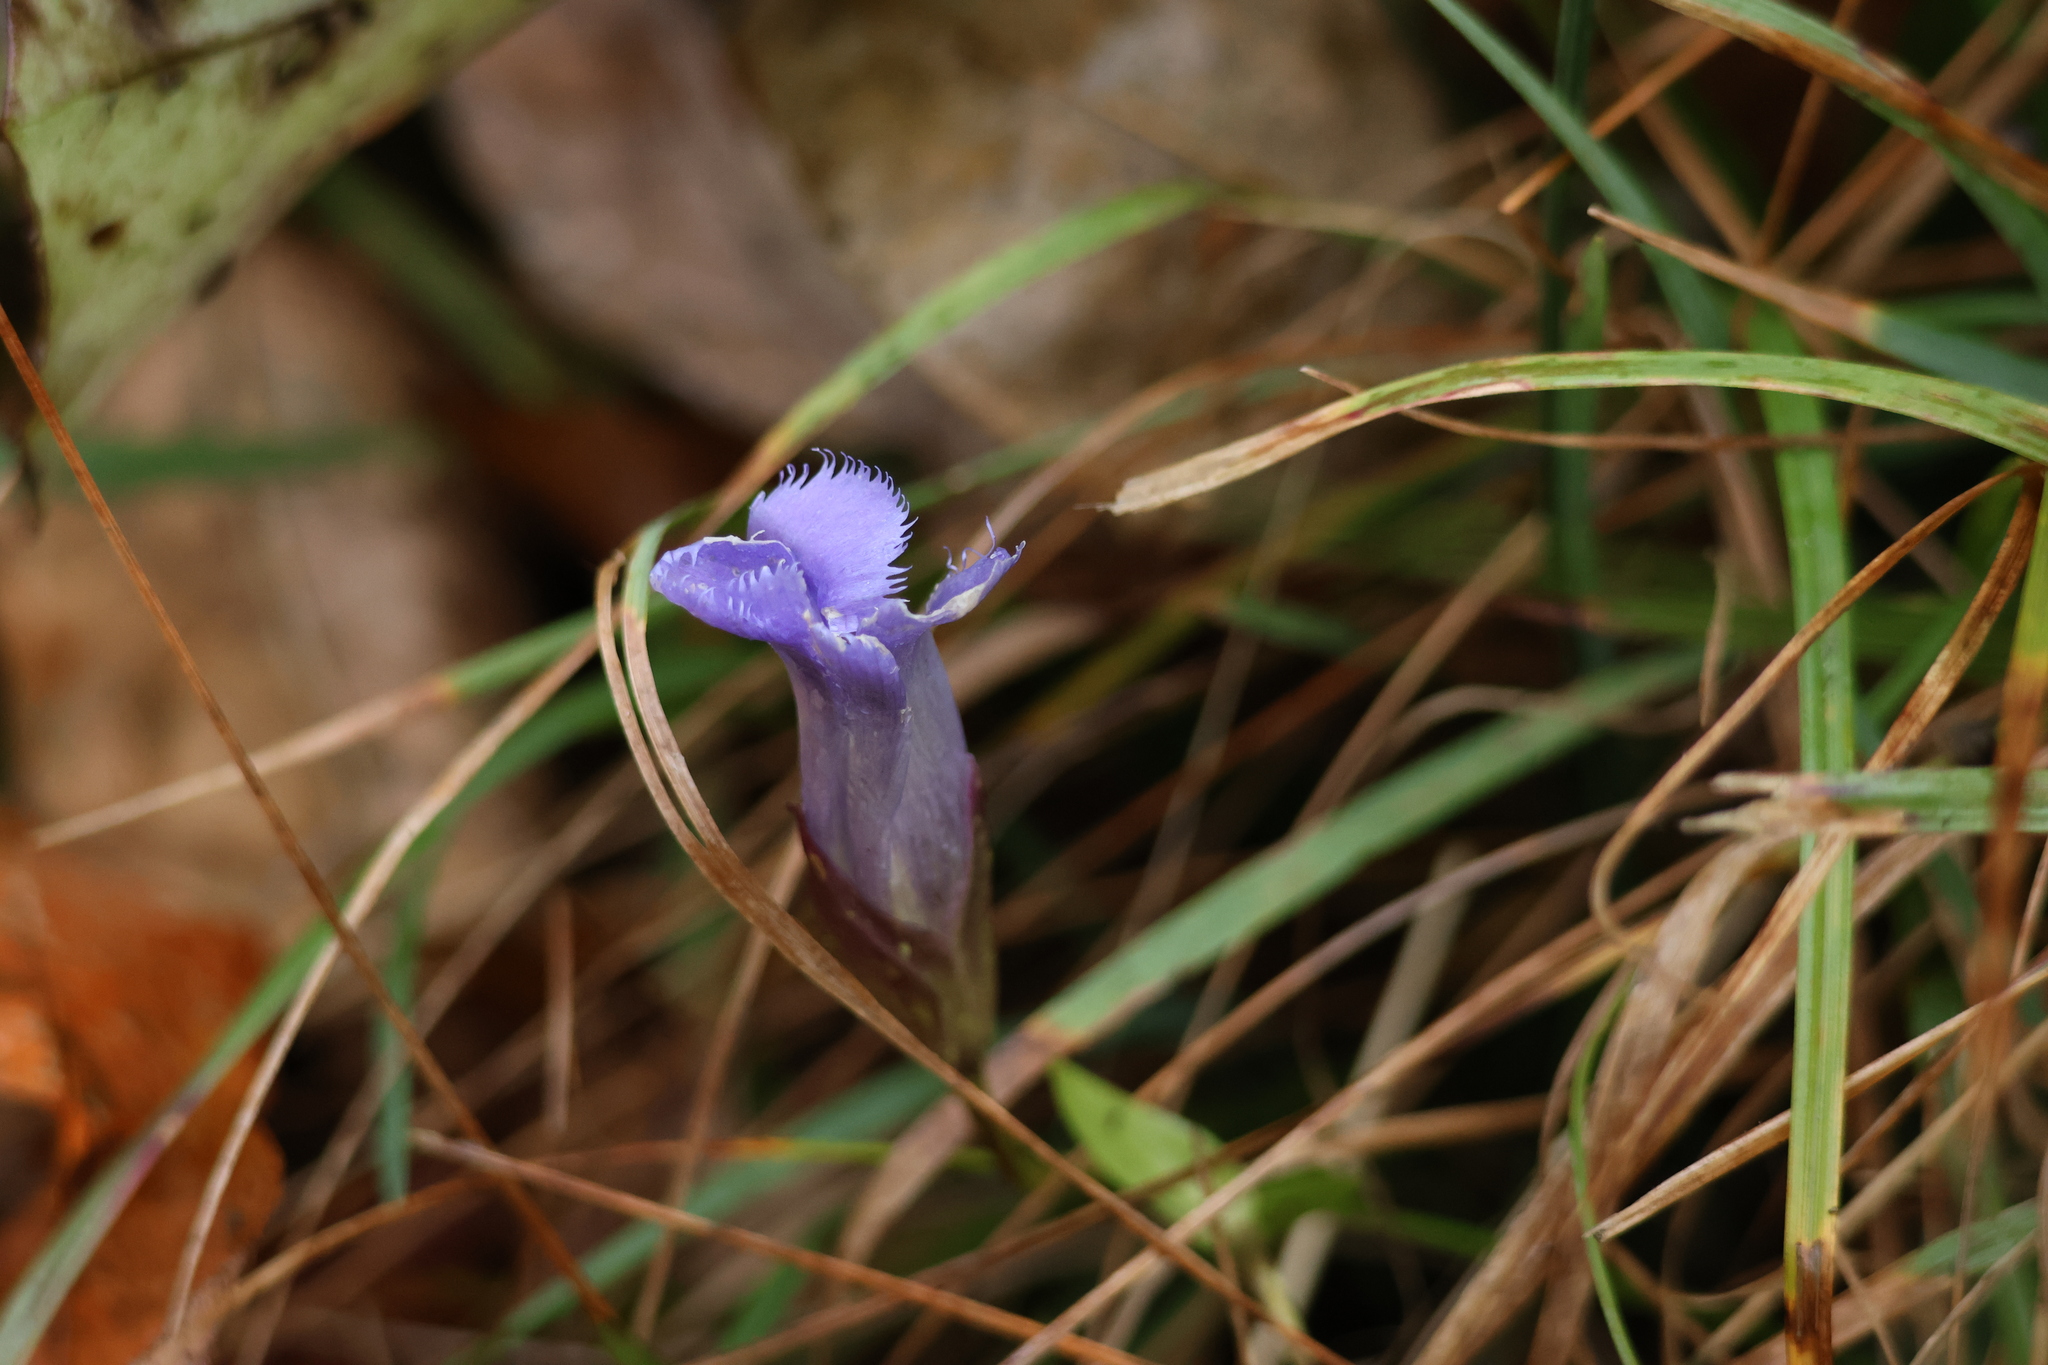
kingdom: Plantae
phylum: Tracheophyta
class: Magnoliopsida
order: Gentianales
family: Gentianaceae
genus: Gentianopsis
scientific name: Gentianopsis crinita
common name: Fringed-gentian
